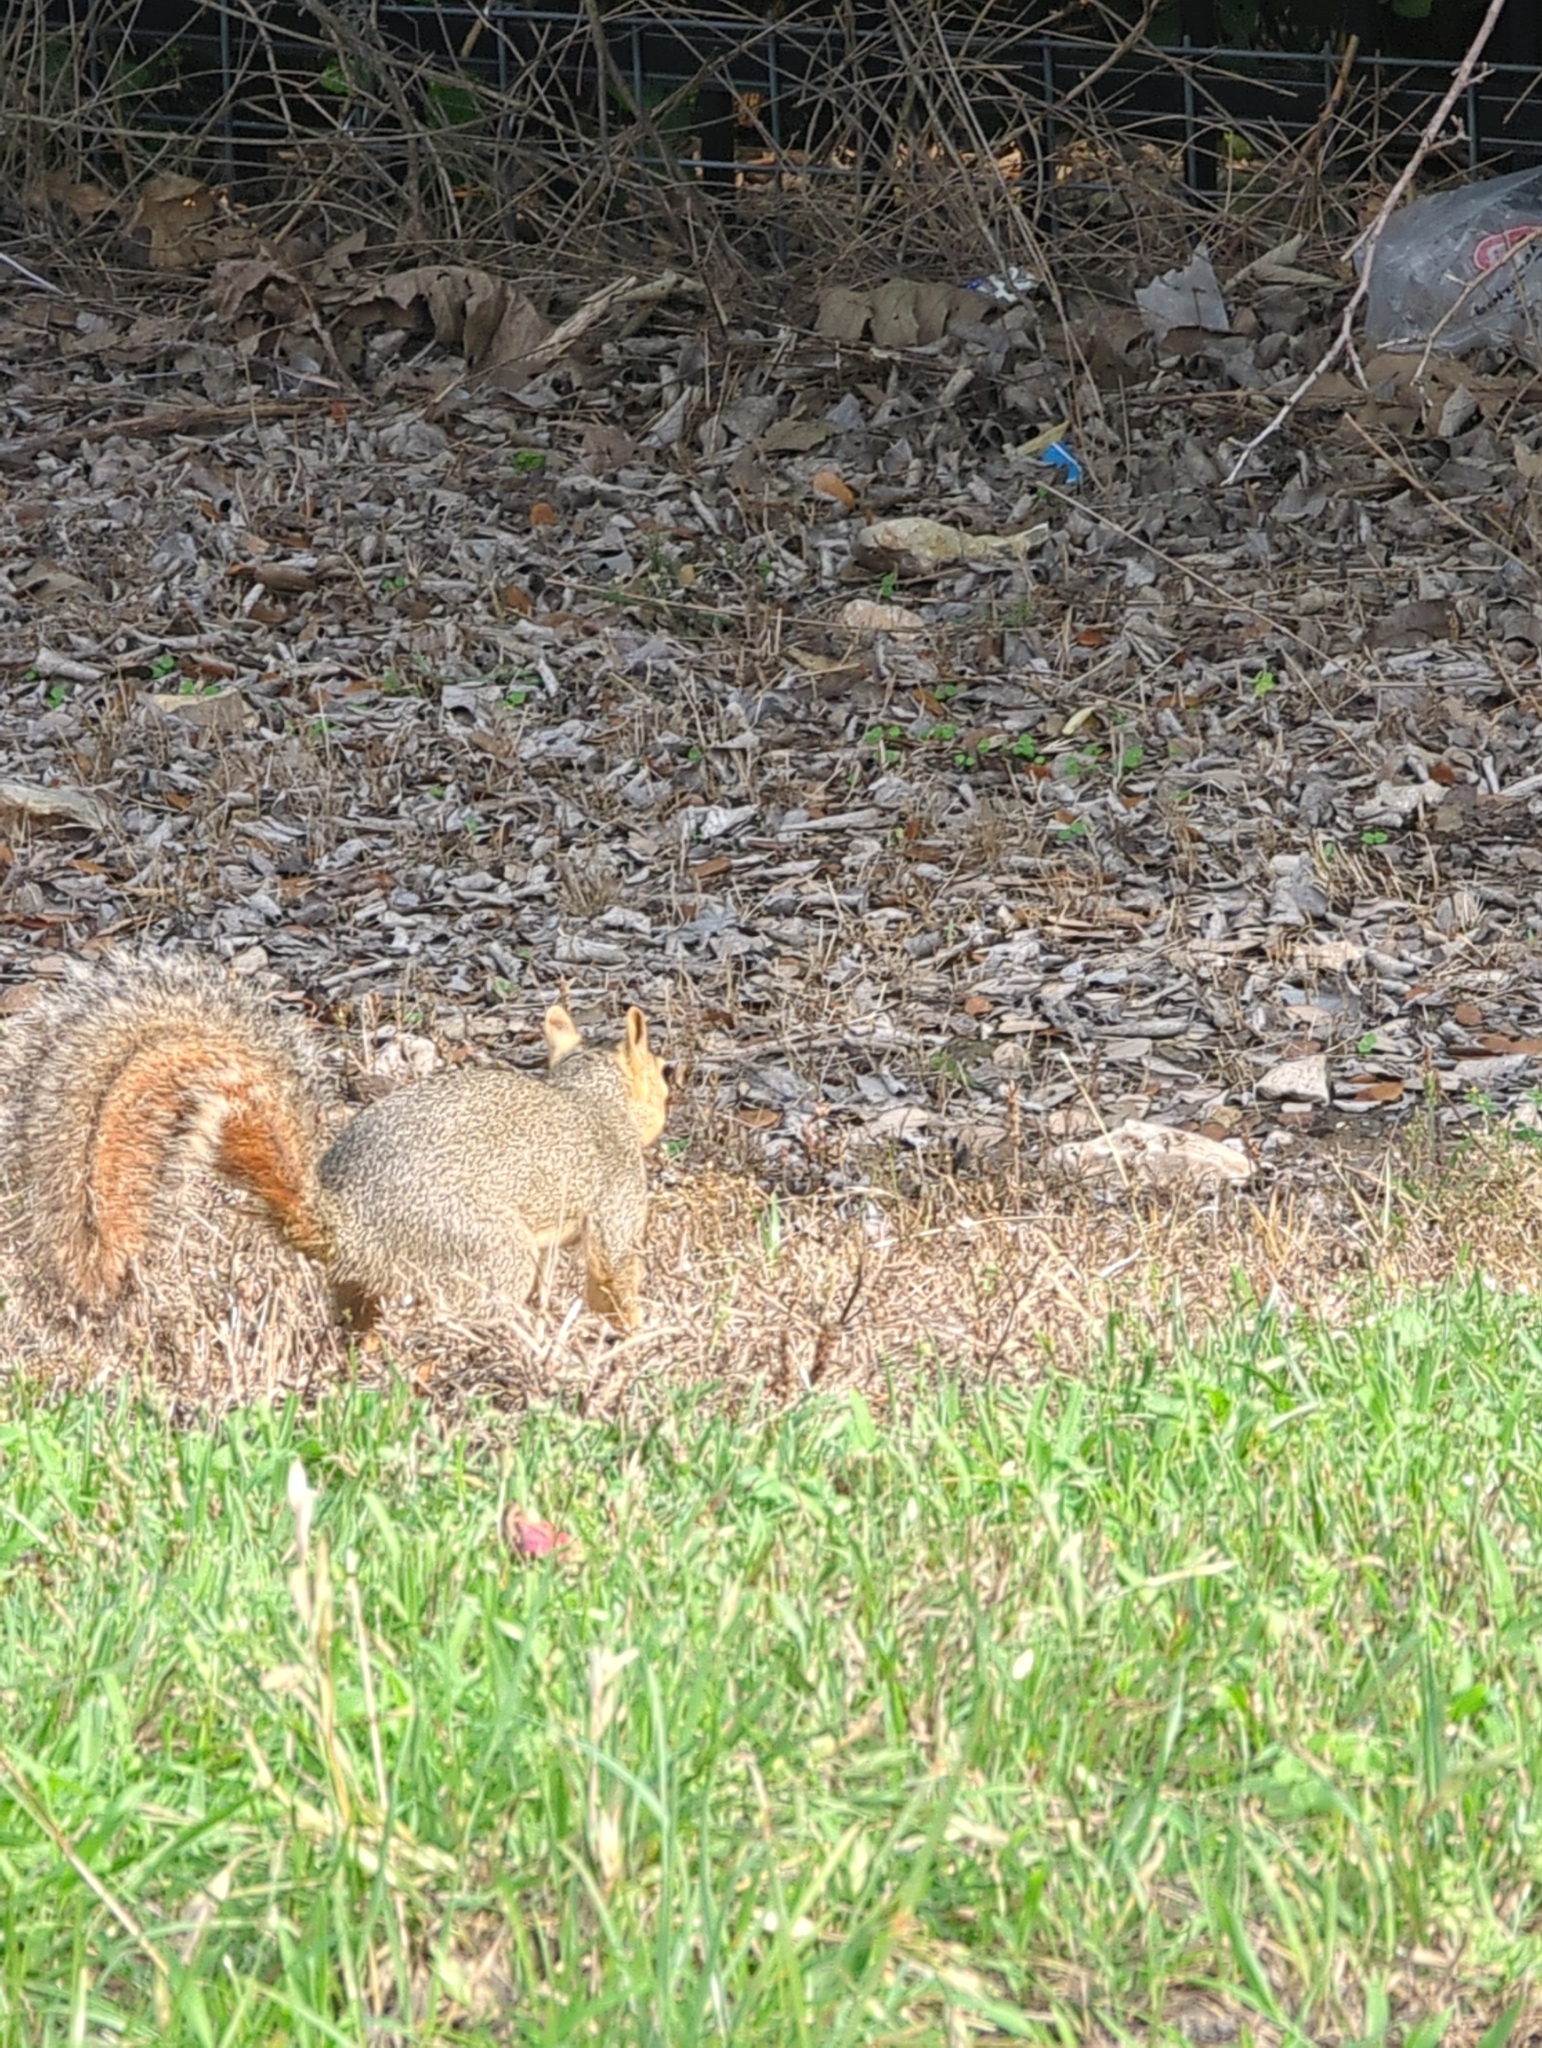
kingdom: Animalia
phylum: Chordata
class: Mammalia
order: Rodentia
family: Sciuridae
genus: Sciurus
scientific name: Sciurus niger
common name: Fox squirrel
